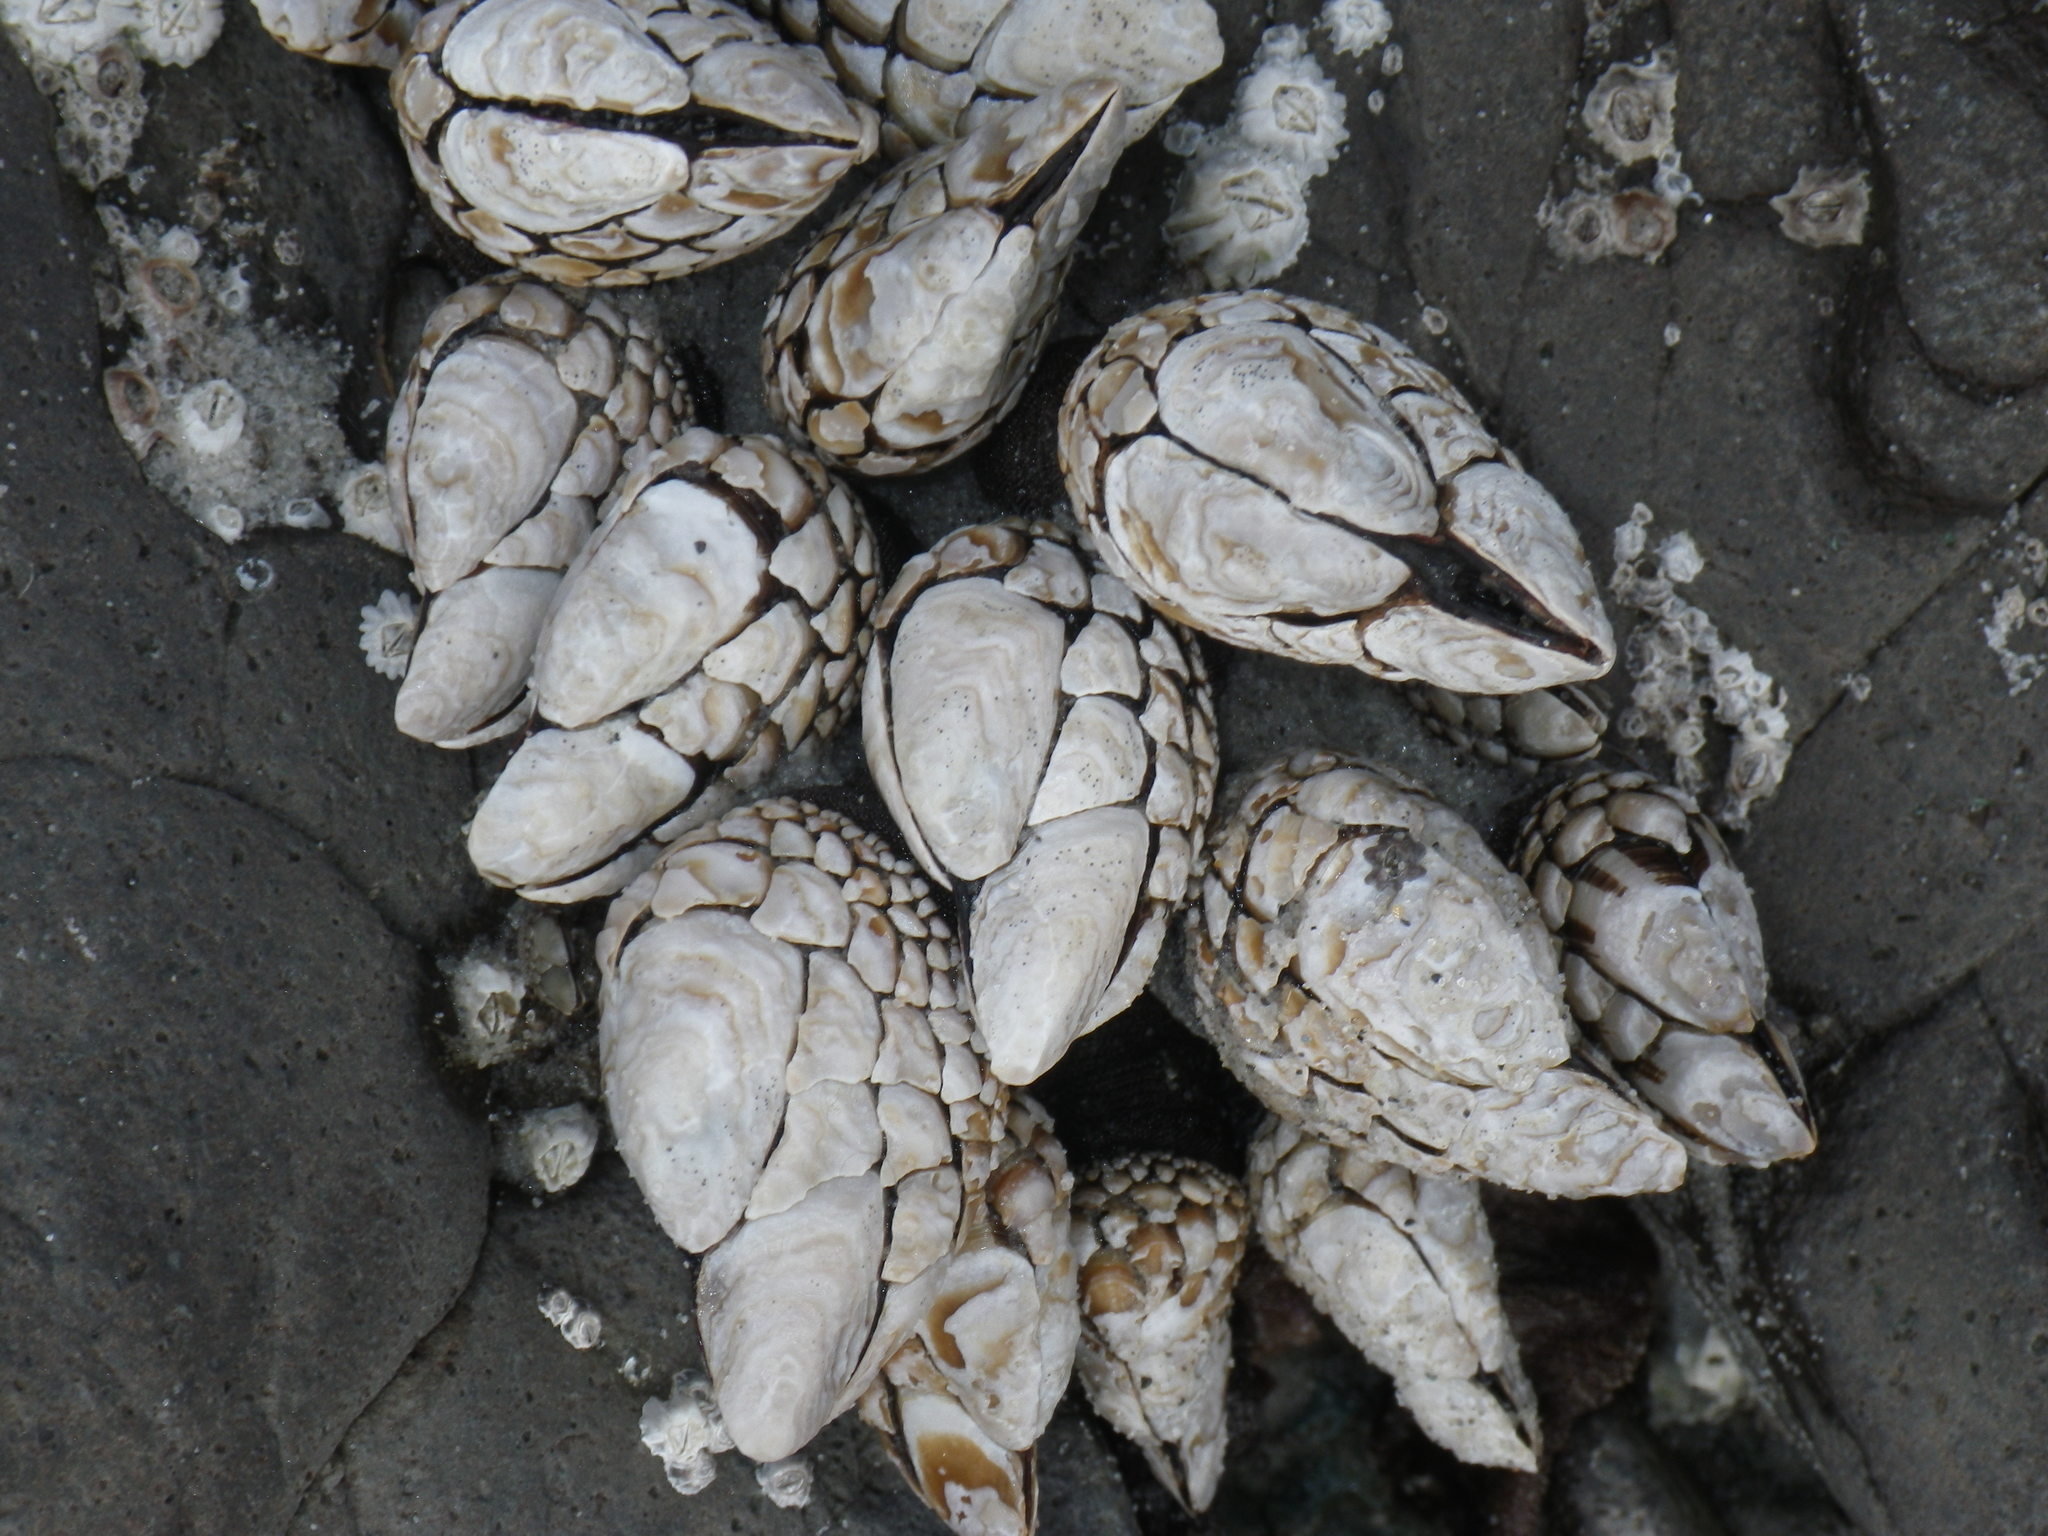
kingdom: Animalia
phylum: Arthropoda
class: Maxillopoda
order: Pedunculata
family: Pollicipedidae
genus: Pollicipes
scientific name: Pollicipes polymerus
